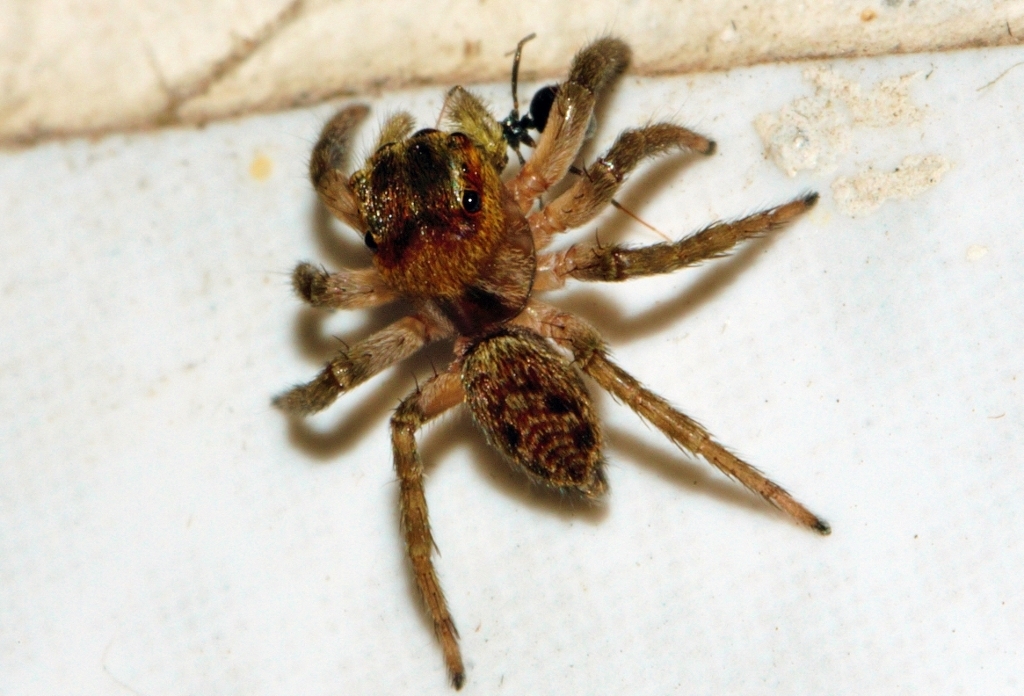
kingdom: Animalia
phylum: Arthropoda
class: Arachnida
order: Araneae
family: Salticidae
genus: Hasarius
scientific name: Hasarius adansoni
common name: Jumping spider
